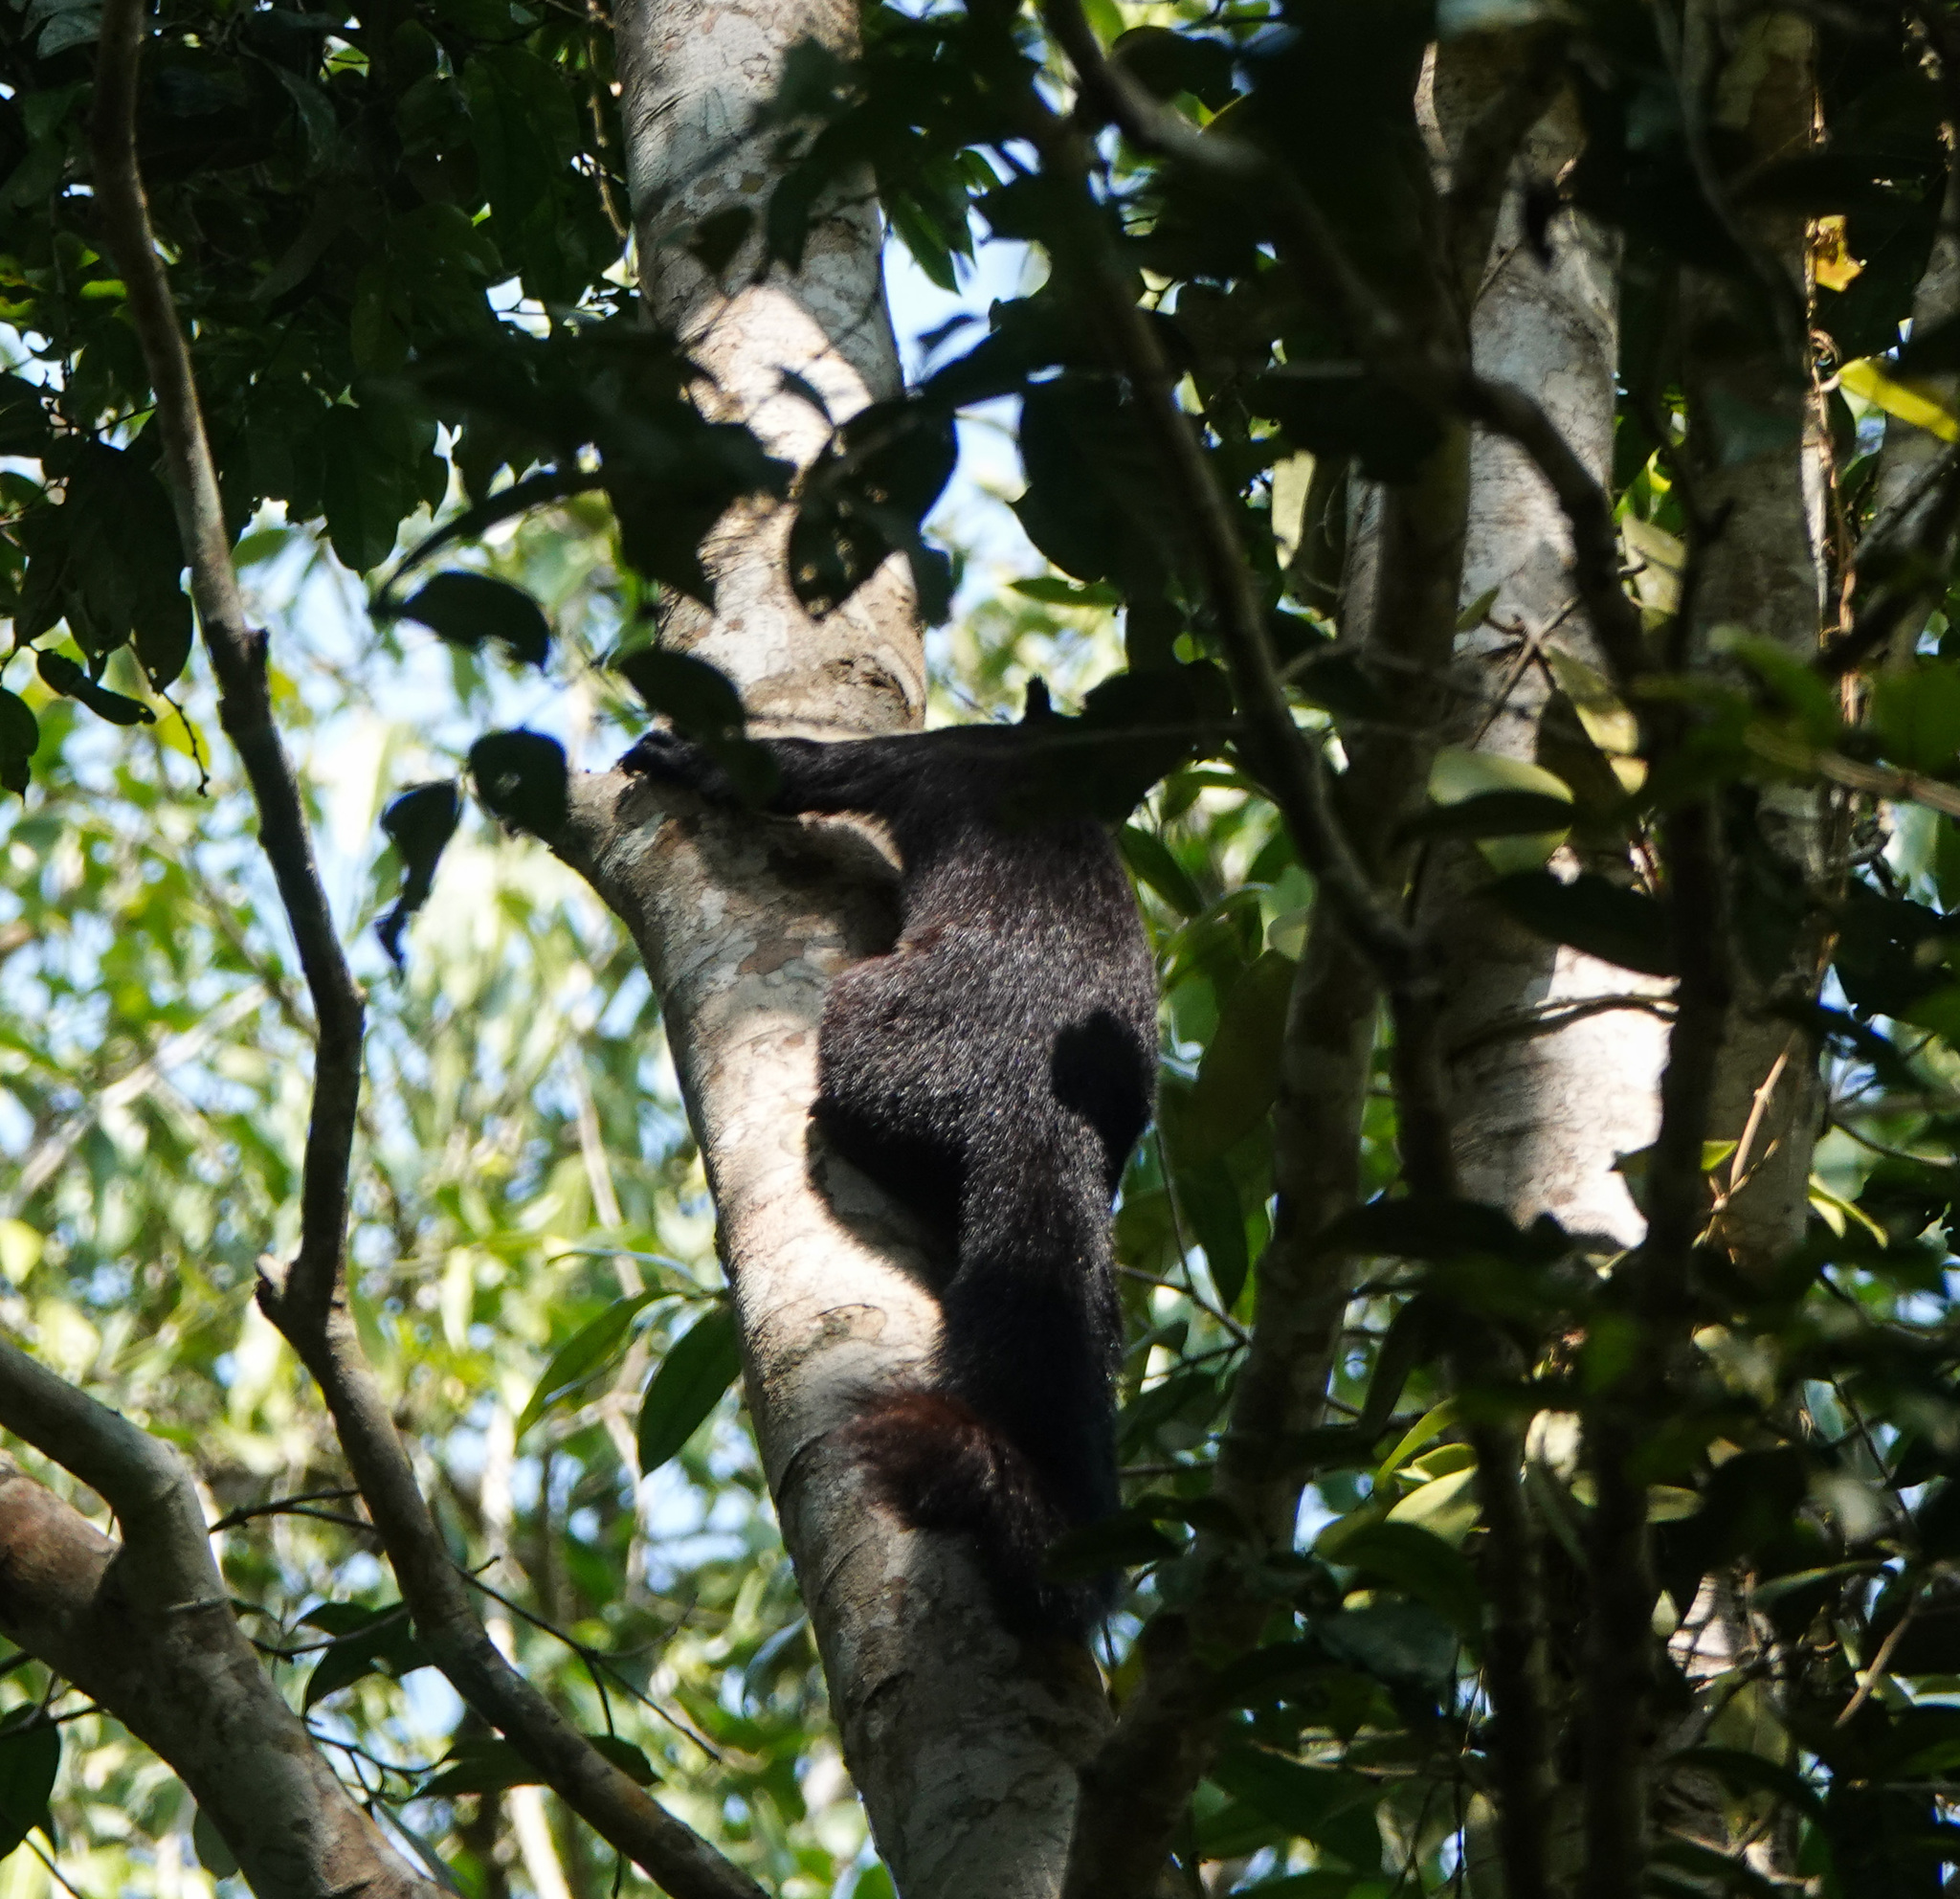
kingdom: Animalia
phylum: Chordata
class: Mammalia
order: Rodentia
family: Sciuridae
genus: Ratufa
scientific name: Ratufa bicolor
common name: Black giant squirrel
